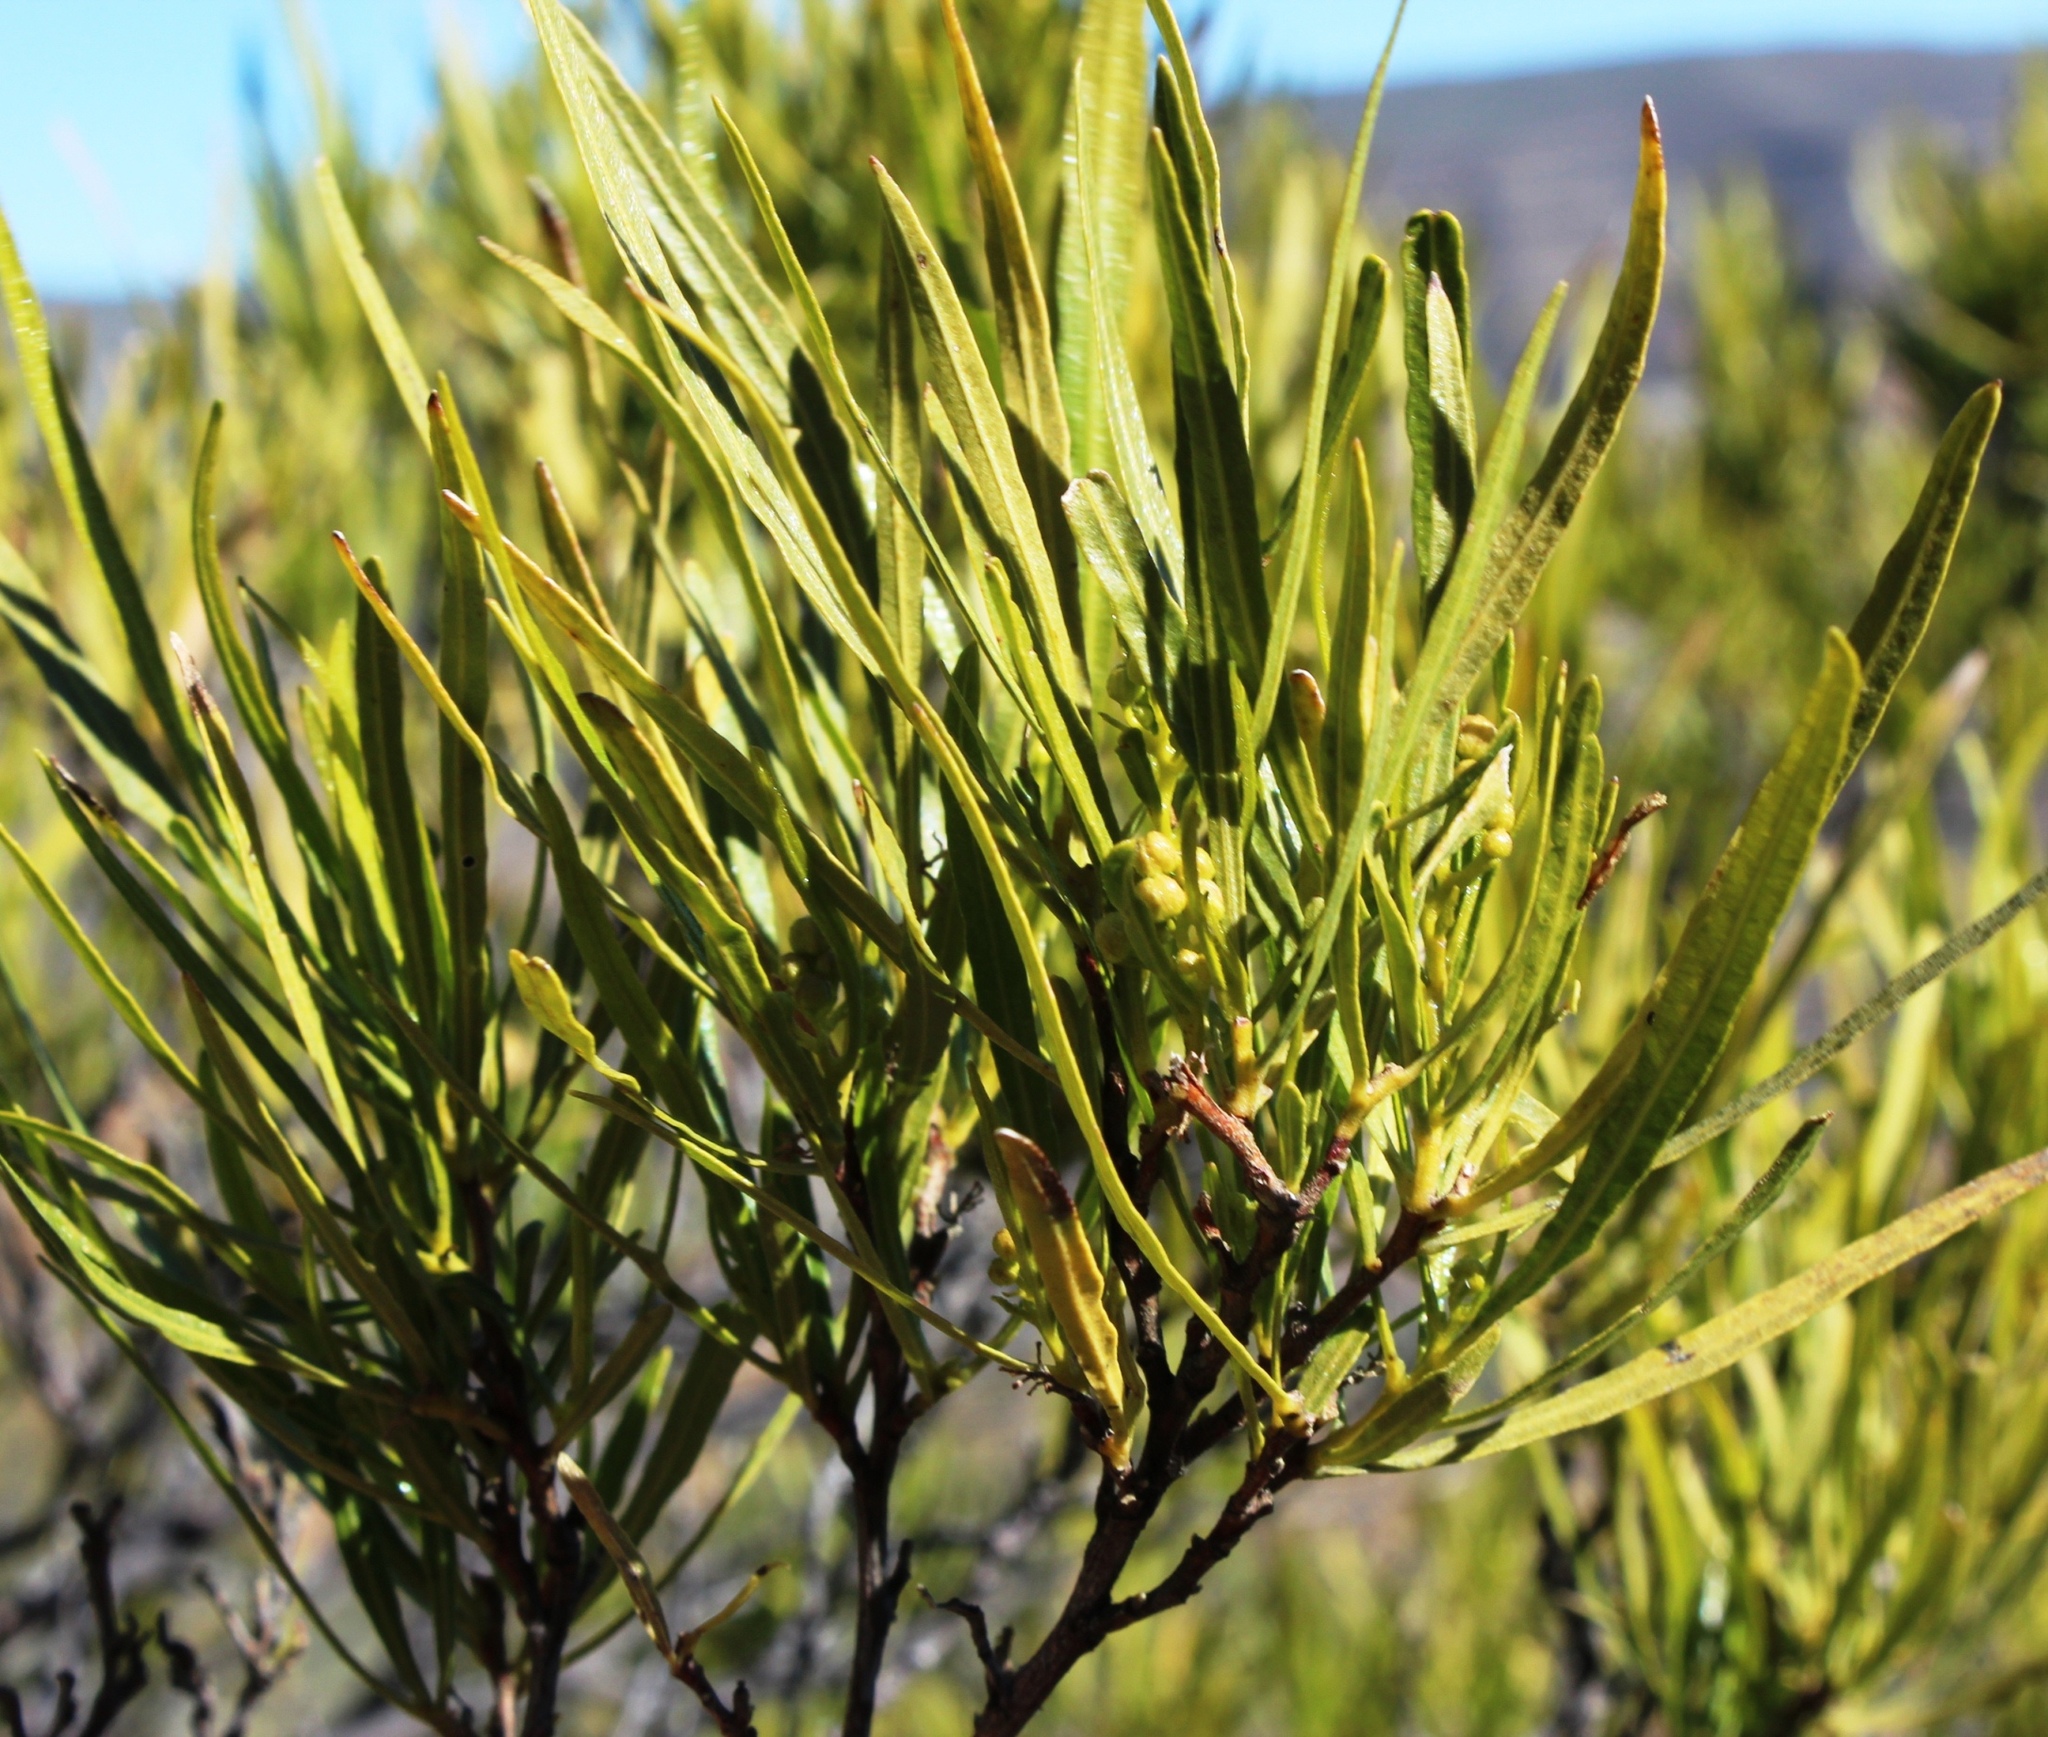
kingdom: Plantae
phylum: Tracheophyta
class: Magnoliopsida
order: Sapindales
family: Sapindaceae
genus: Dodonaea
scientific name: Dodonaea viscosa
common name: Hopbush
